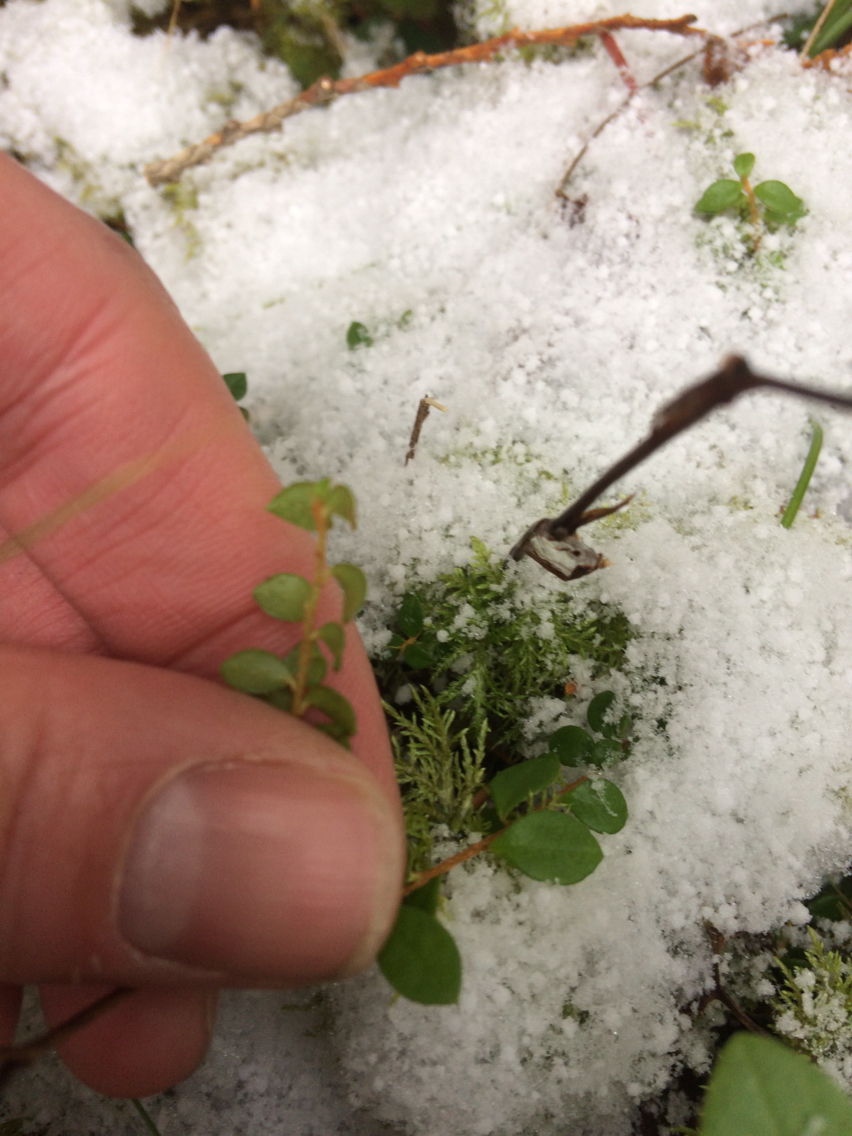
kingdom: Plantae
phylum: Tracheophyta
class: Magnoliopsida
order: Ericales
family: Ericaceae
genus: Gaultheria
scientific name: Gaultheria hispidula
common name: Cancer wintergreen
